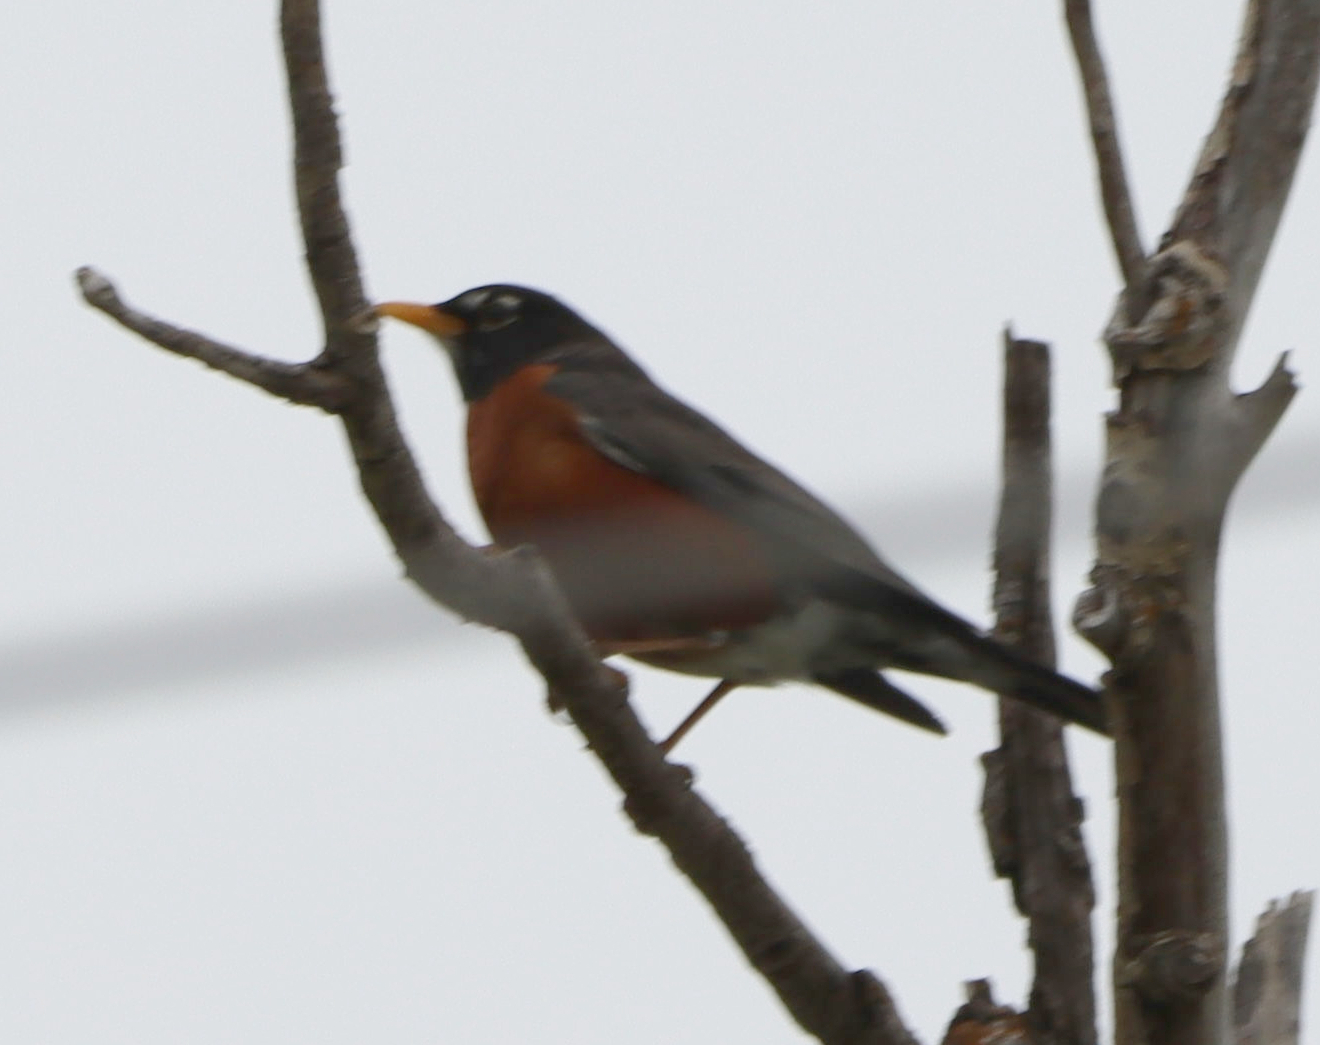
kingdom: Animalia
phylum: Chordata
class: Aves
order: Passeriformes
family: Turdidae
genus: Turdus
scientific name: Turdus migratorius
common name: American robin
